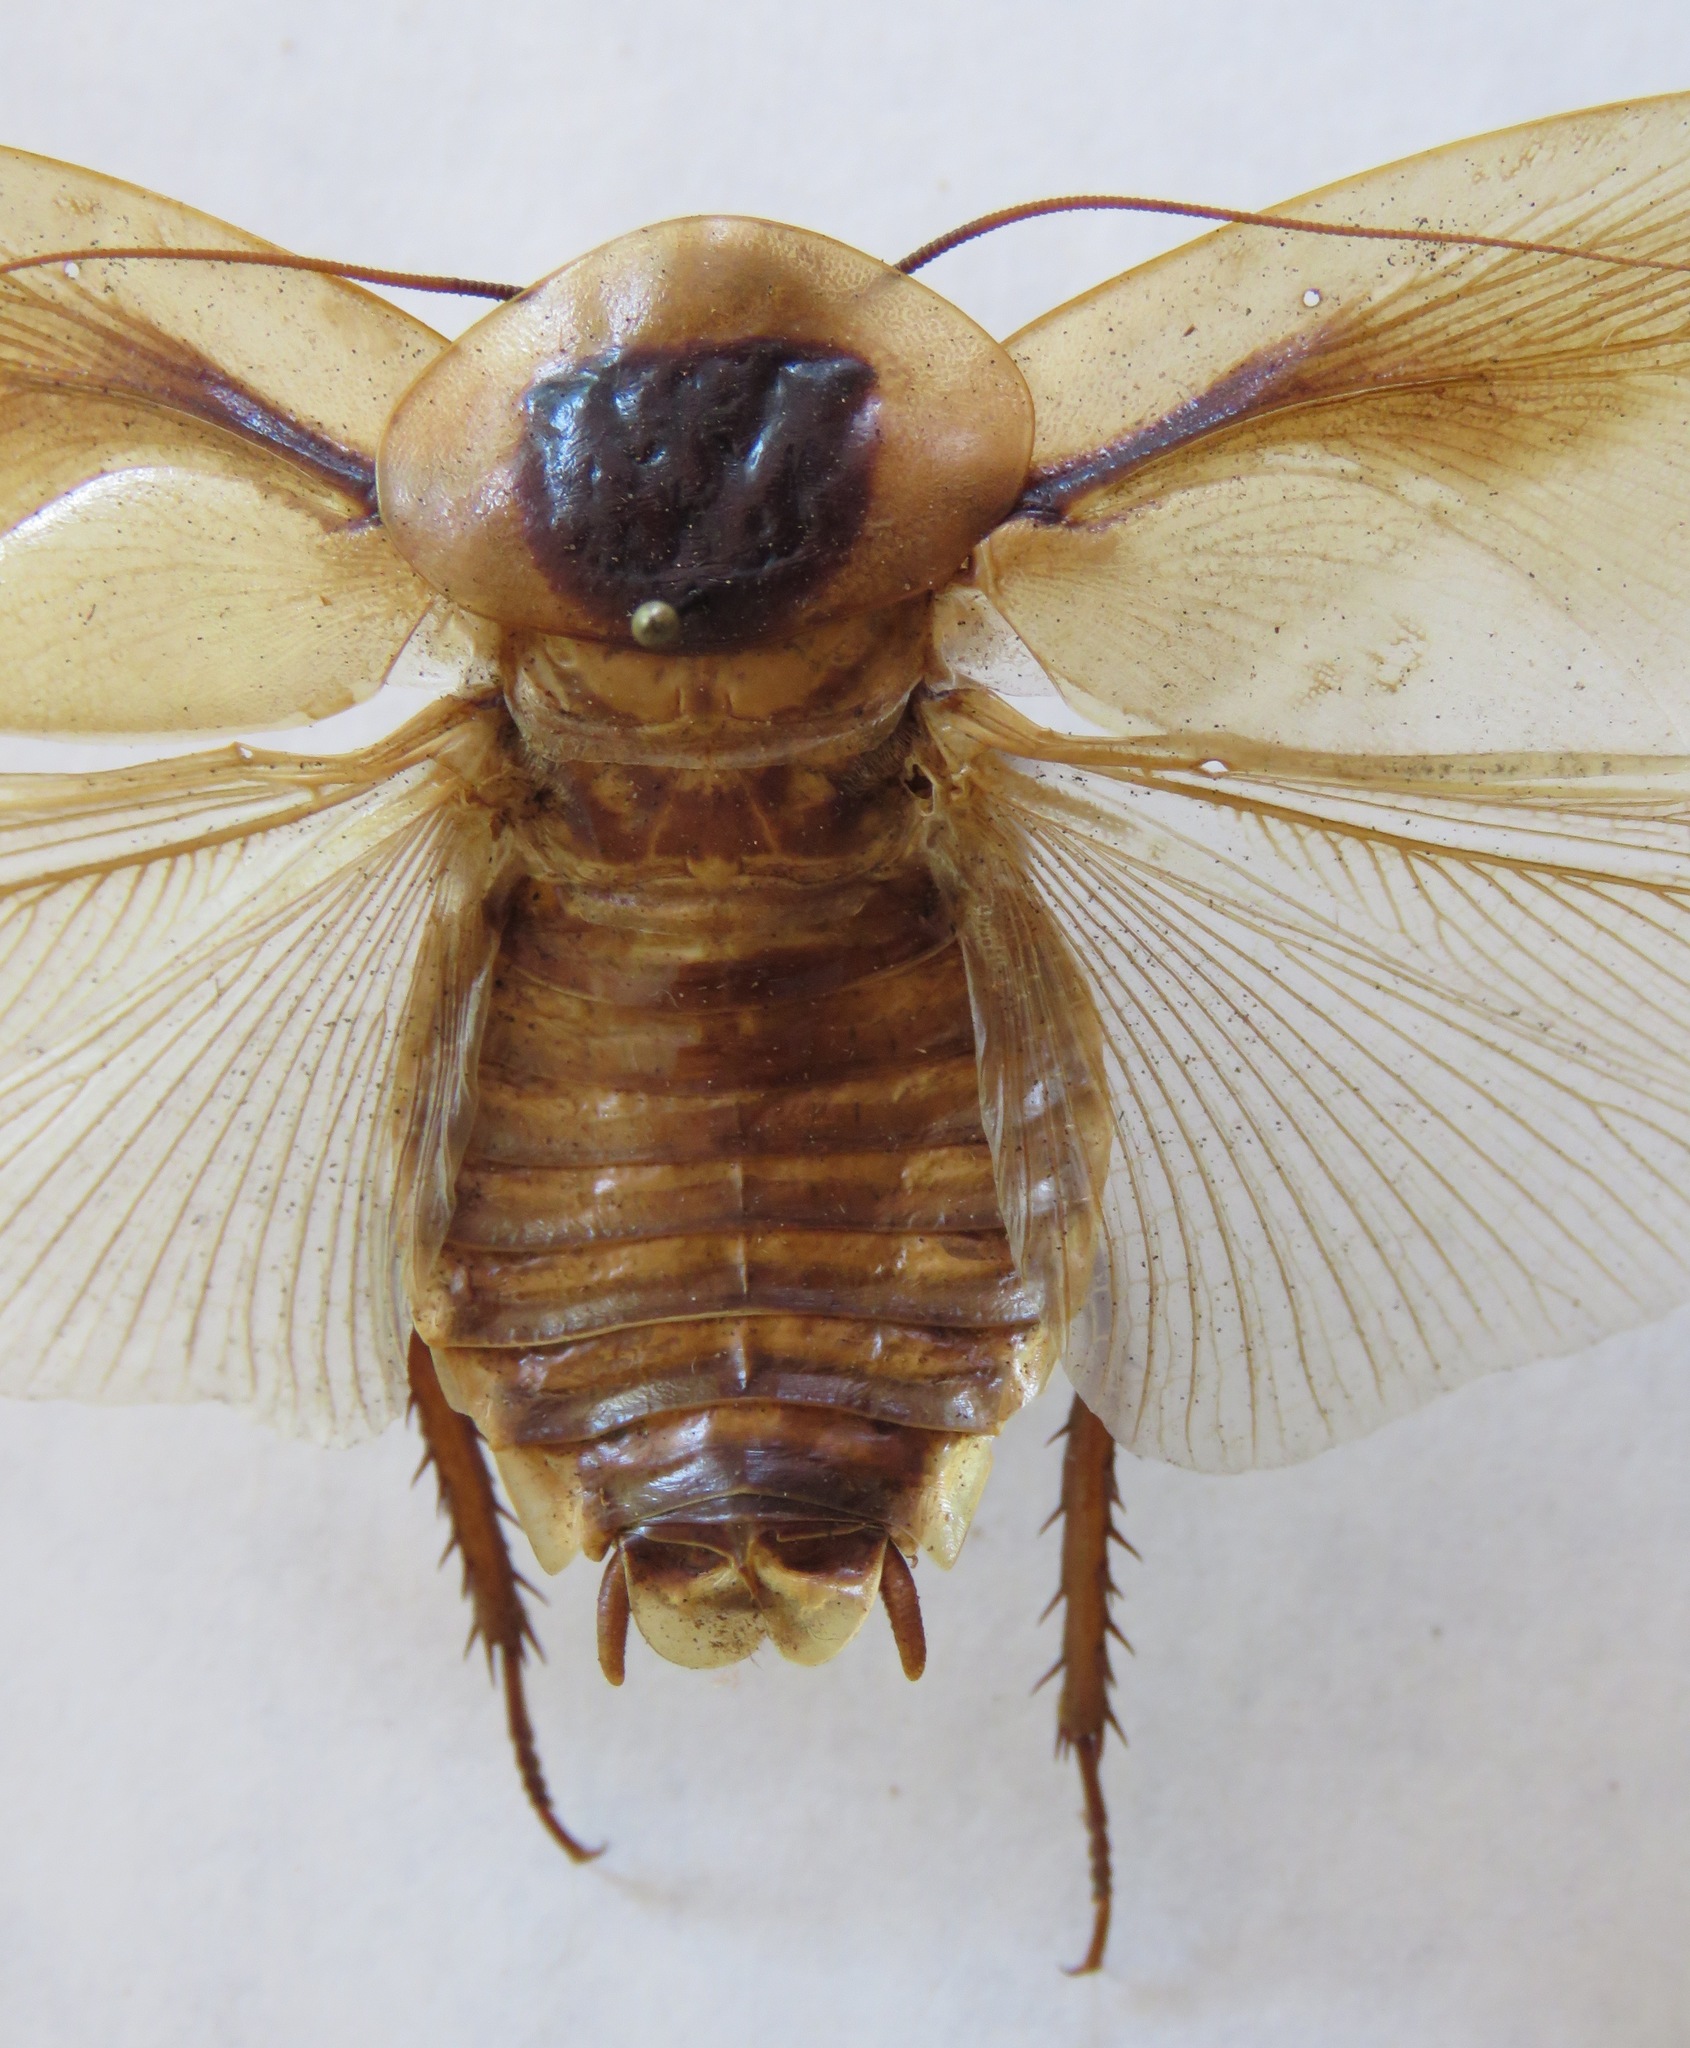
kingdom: Animalia
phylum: Arthropoda
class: Insecta
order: Blattodea
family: Blaberidae
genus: Blaberus
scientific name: Blaberus discoidalis
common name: Discoid cockroach
